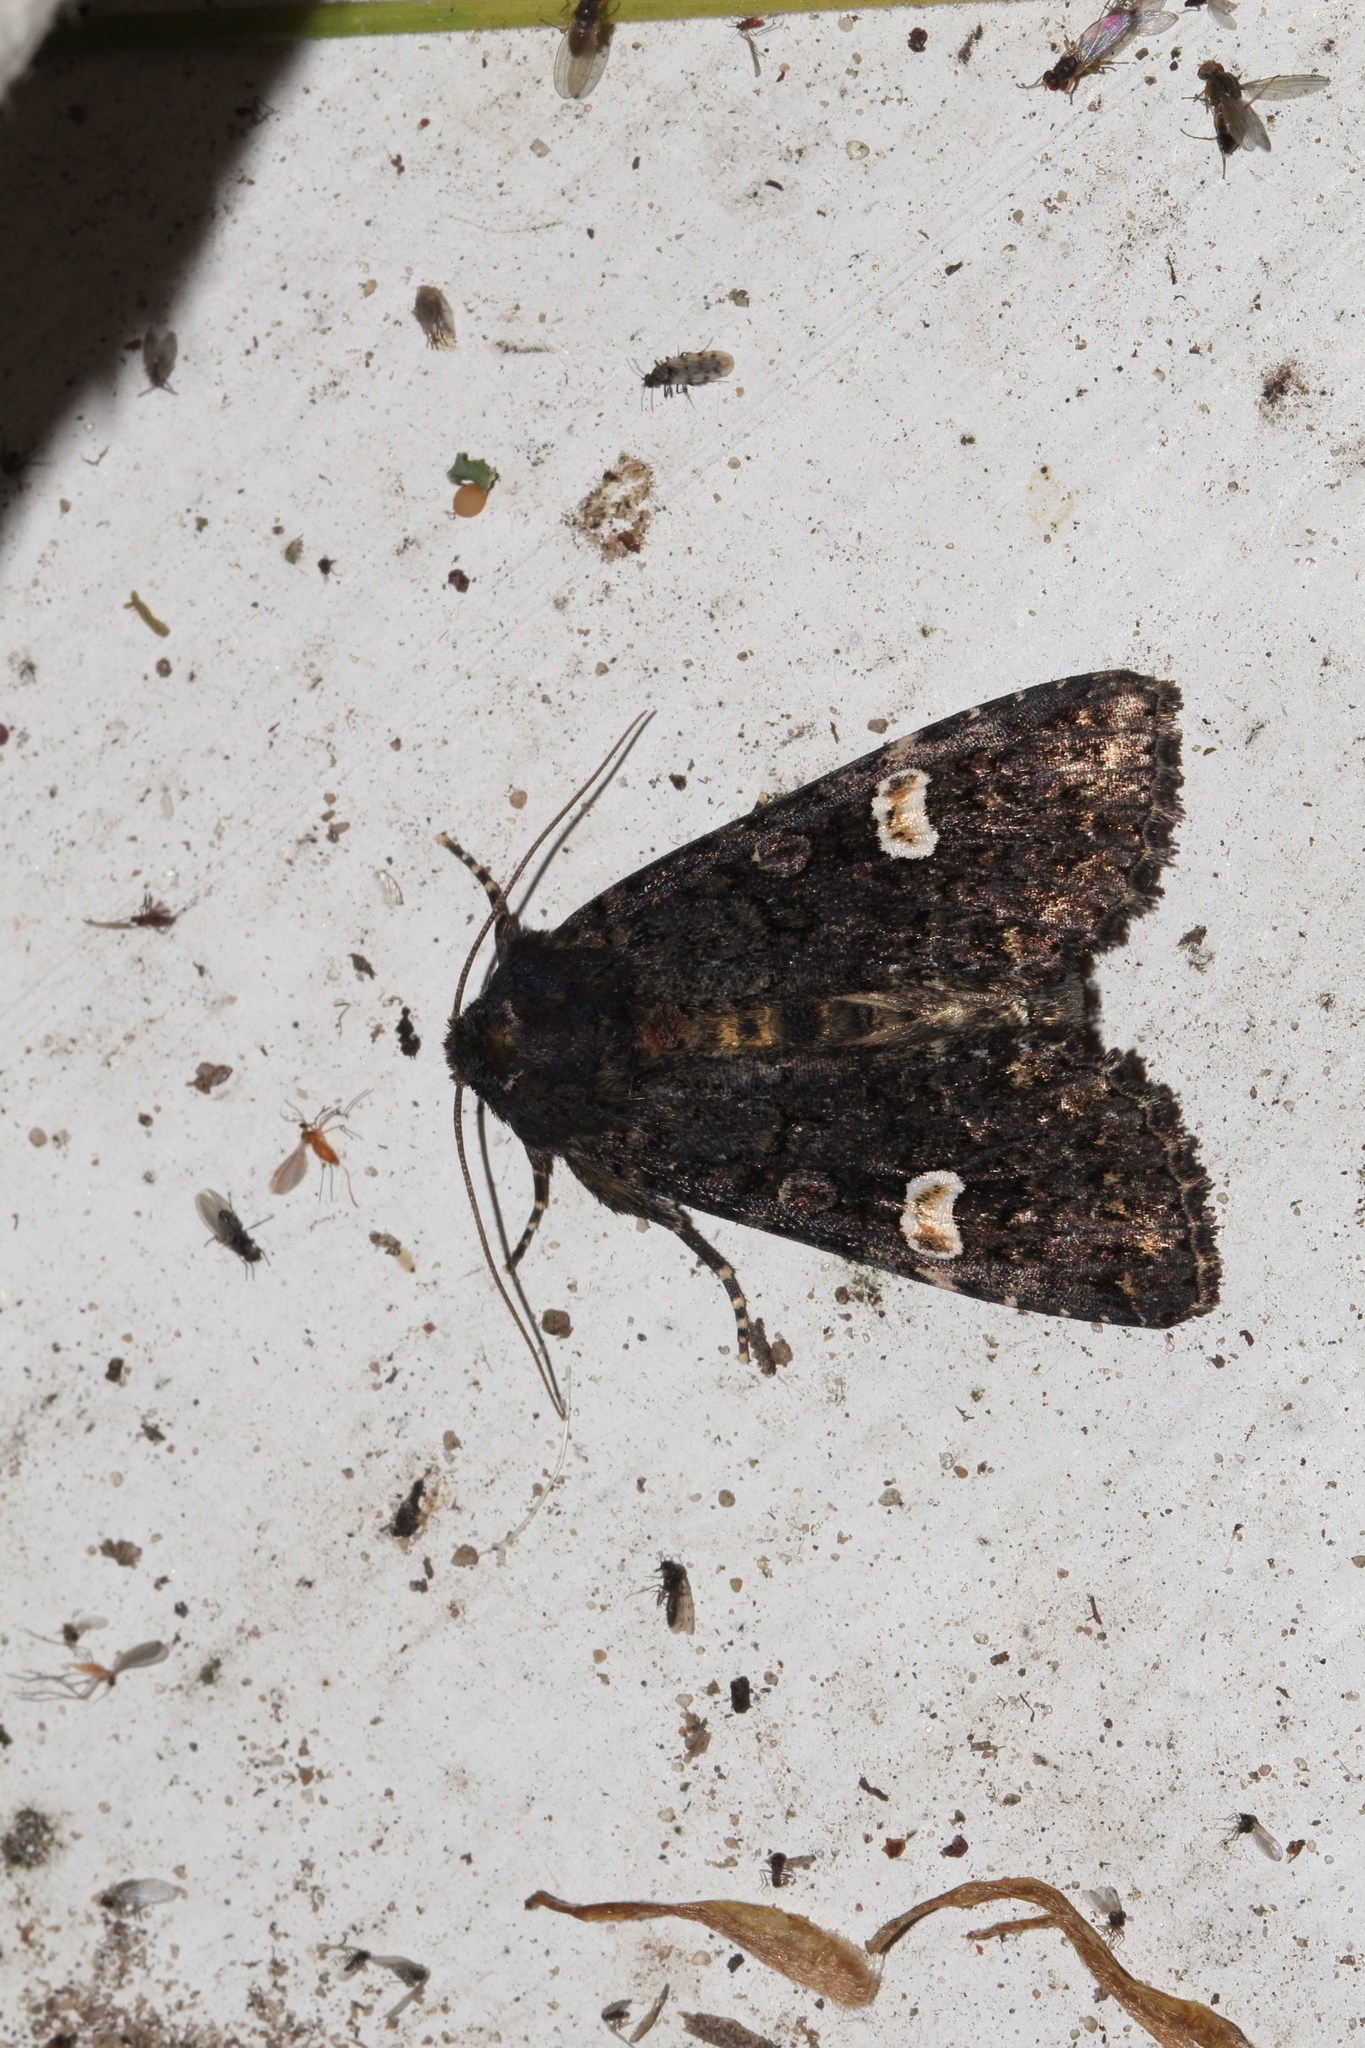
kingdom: Animalia
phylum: Arthropoda
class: Insecta
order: Lepidoptera
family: Noctuidae
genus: Melanchra
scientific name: Melanchra persicariae
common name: Dot moth
